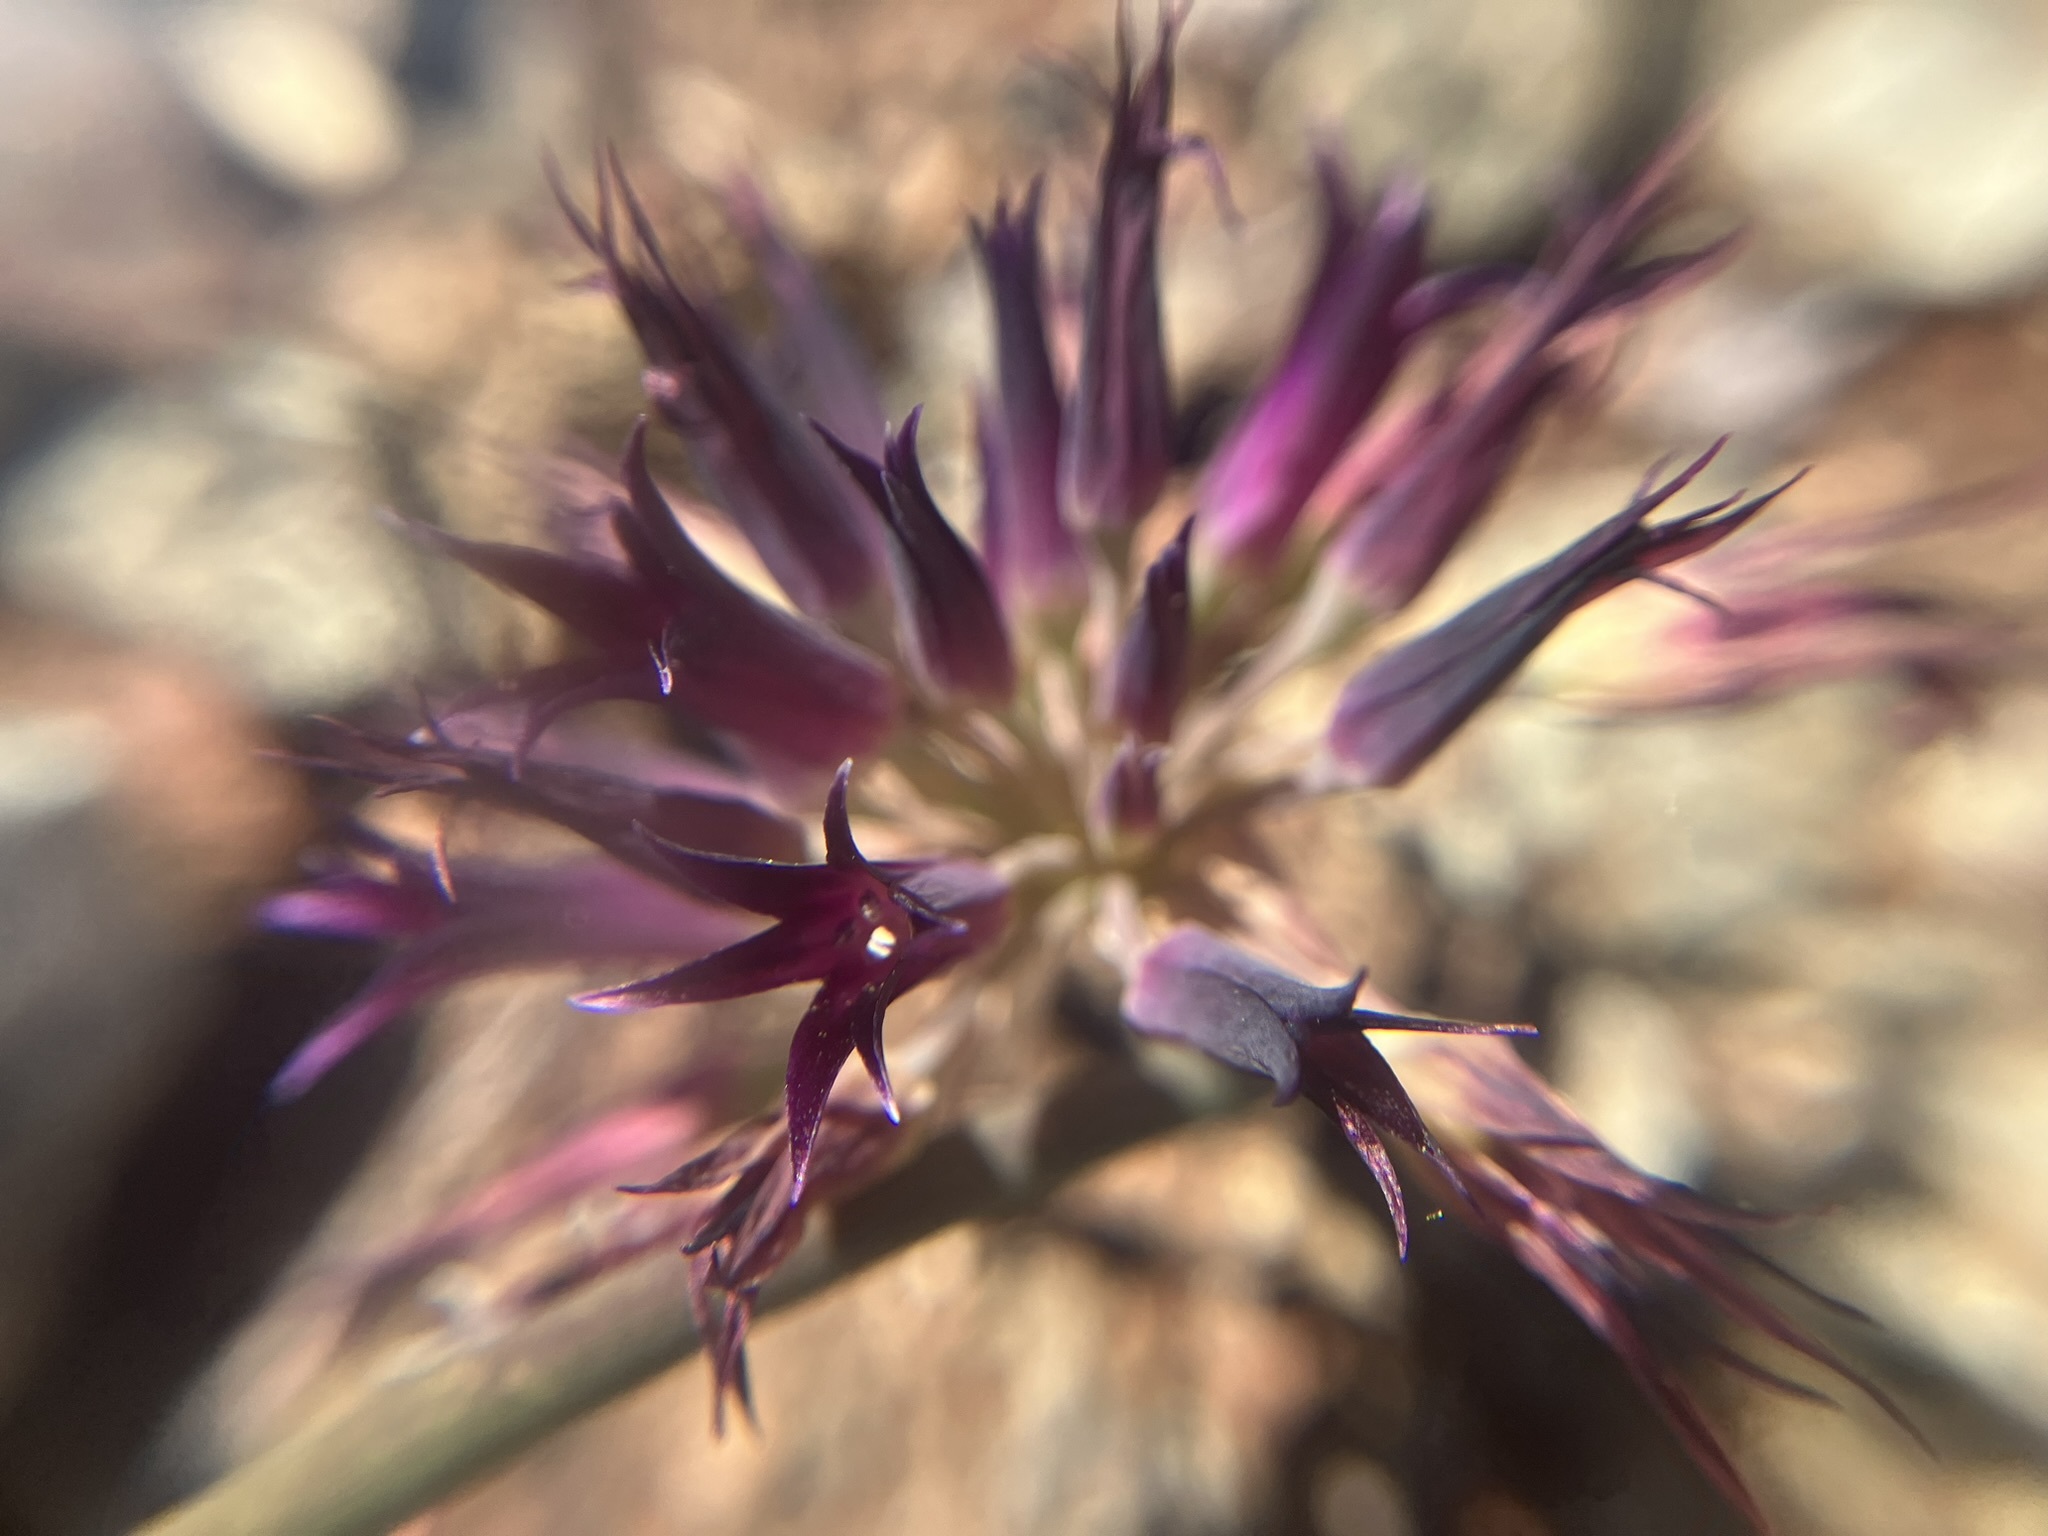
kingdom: Plantae
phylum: Tracheophyta
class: Liliopsida
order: Asparagales
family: Amaryllidaceae
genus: Allium
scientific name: Allium sharsmithiae
